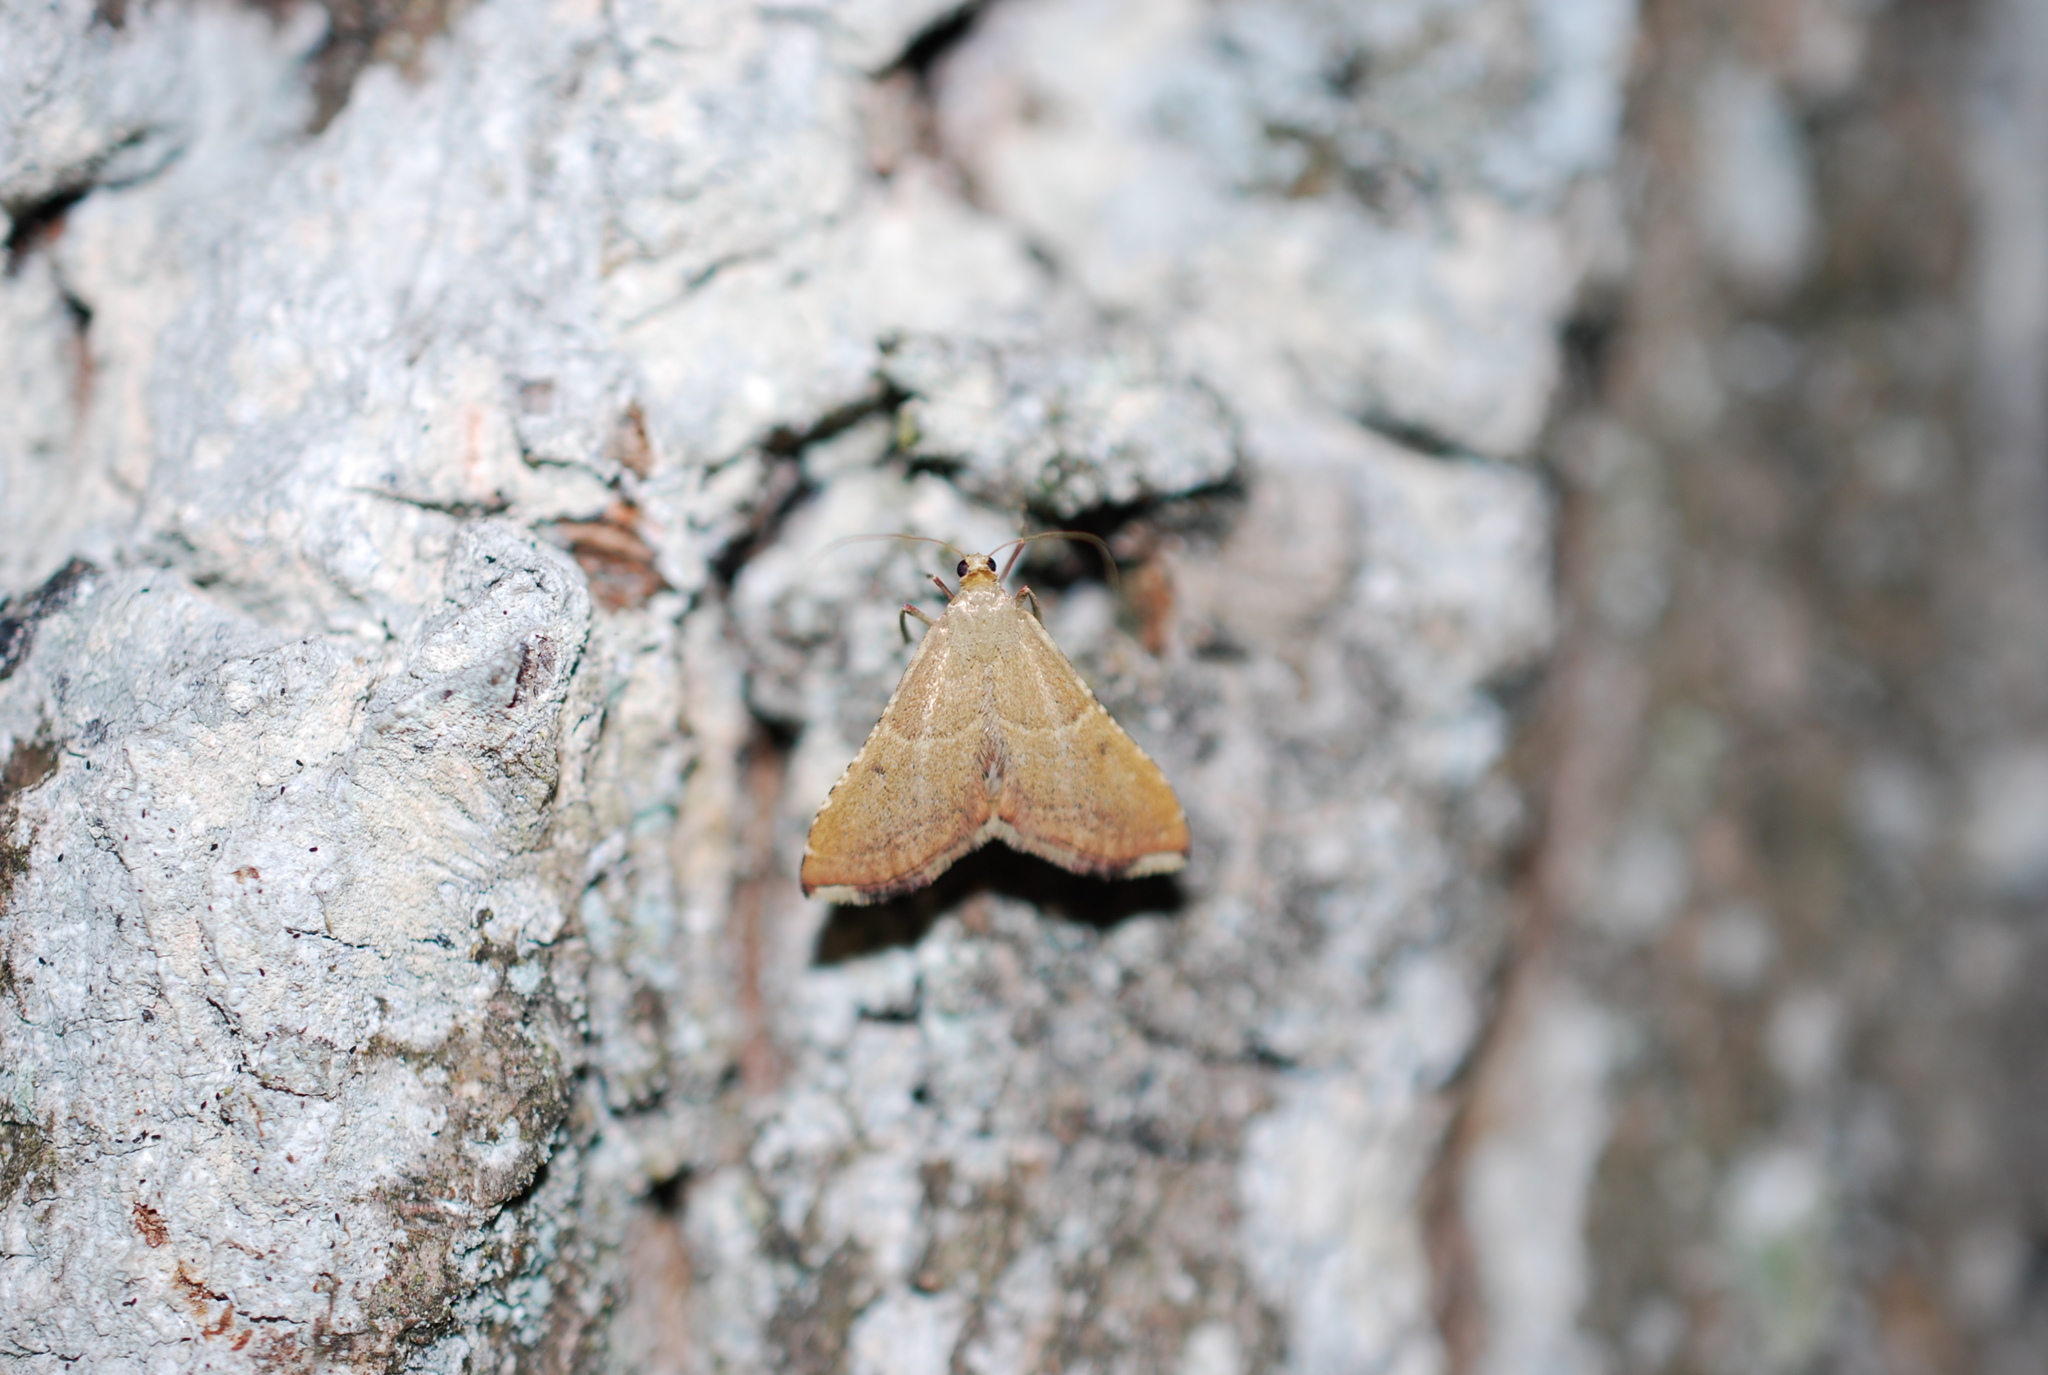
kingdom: Animalia
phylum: Arthropoda
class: Insecta
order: Lepidoptera
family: Pyralidae
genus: Endotricha
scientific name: Endotricha flammealis
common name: Rosy tabby
